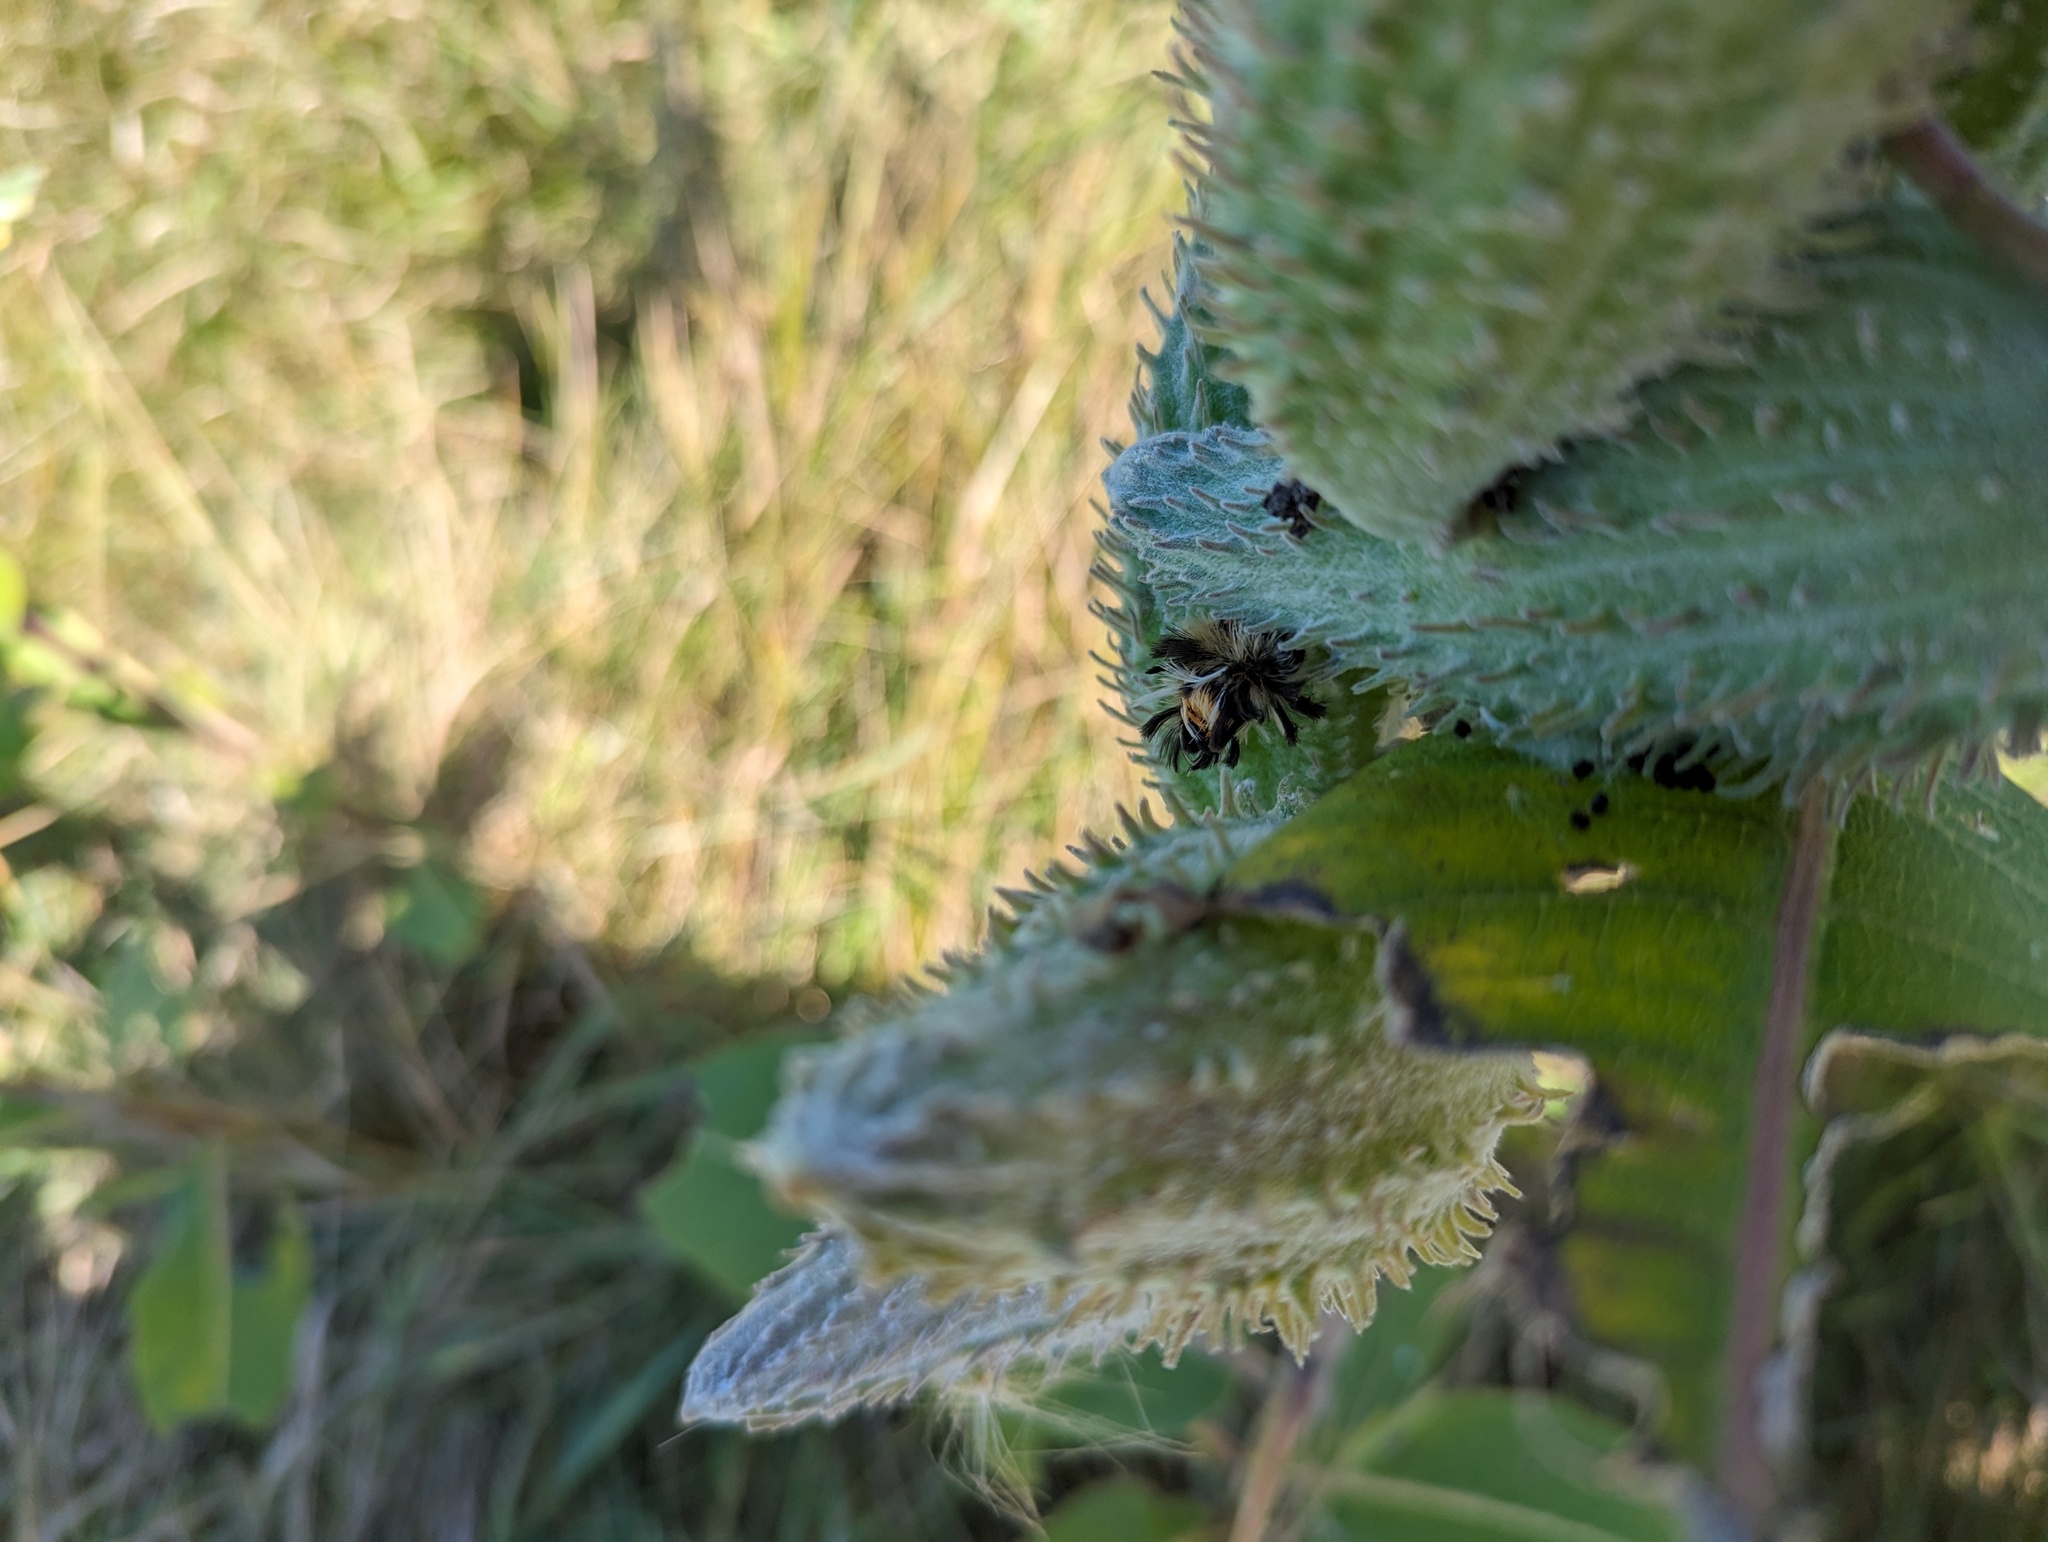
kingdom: Animalia
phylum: Arthropoda
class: Insecta
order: Lepidoptera
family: Erebidae
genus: Euchaetes
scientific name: Euchaetes egle
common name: Milkweed tussock moth
